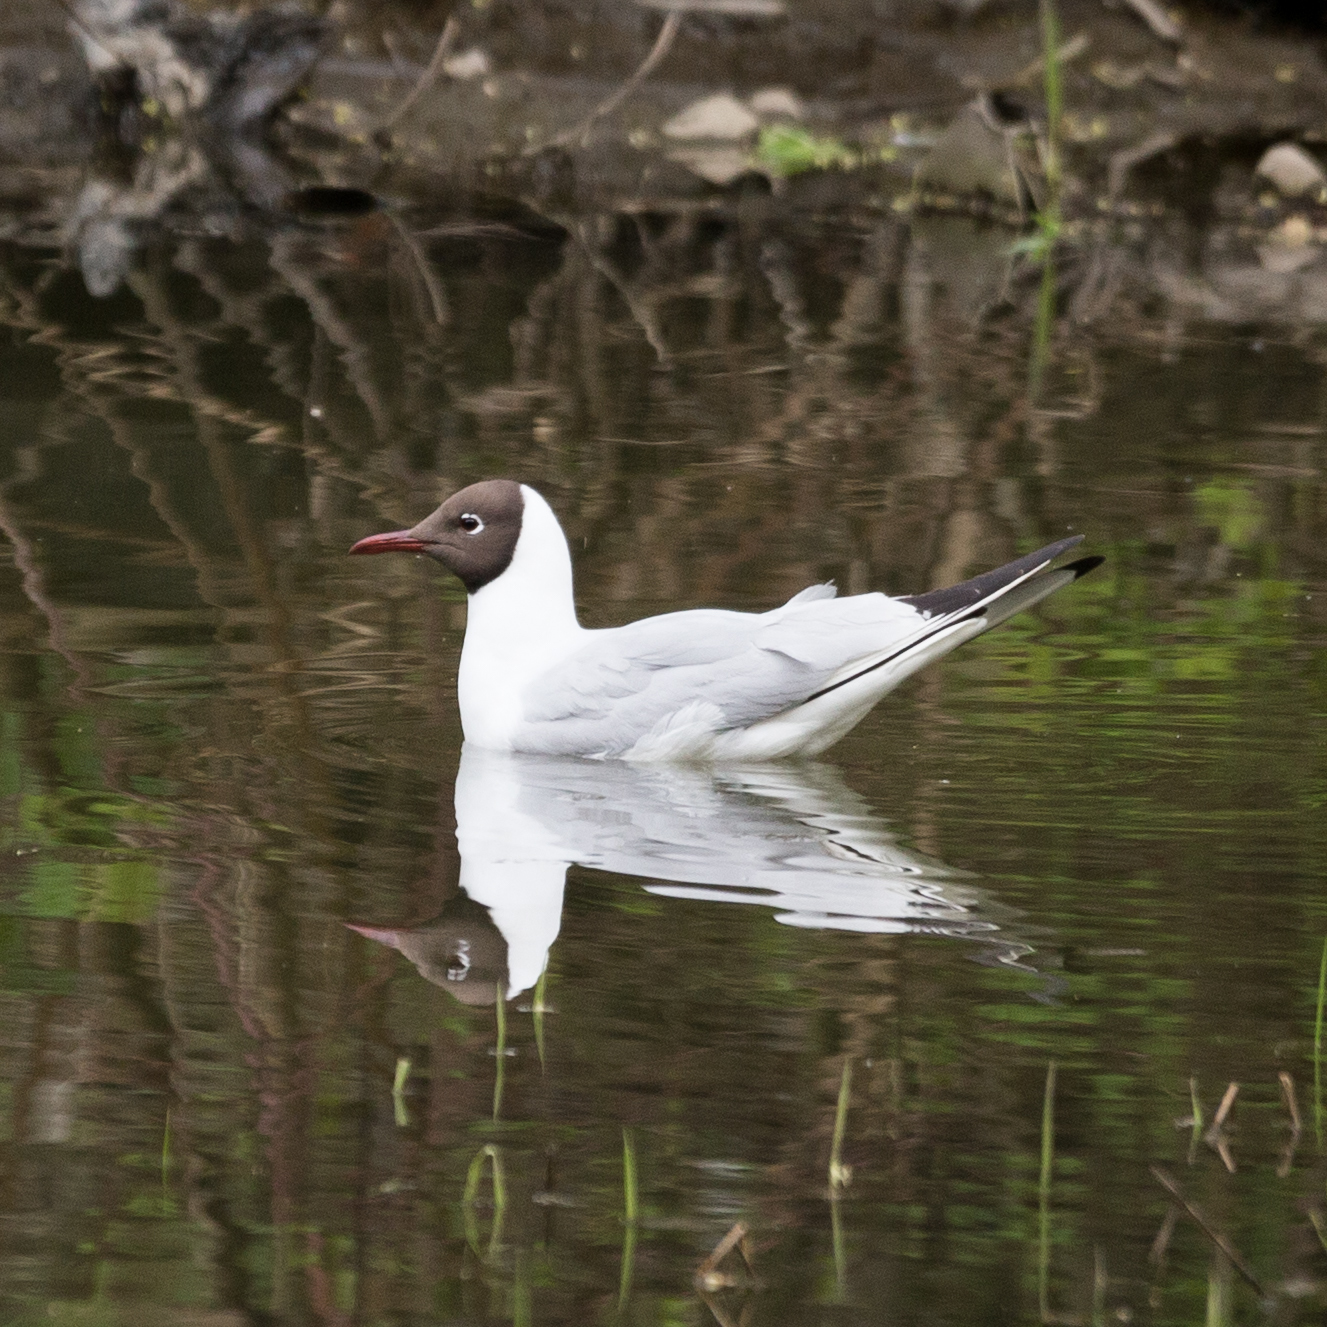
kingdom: Animalia
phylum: Chordata
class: Aves
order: Charadriiformes
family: Laridae
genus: Chroicocephalus
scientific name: Chroicocephalus ridibundus
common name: Black-headed gull
